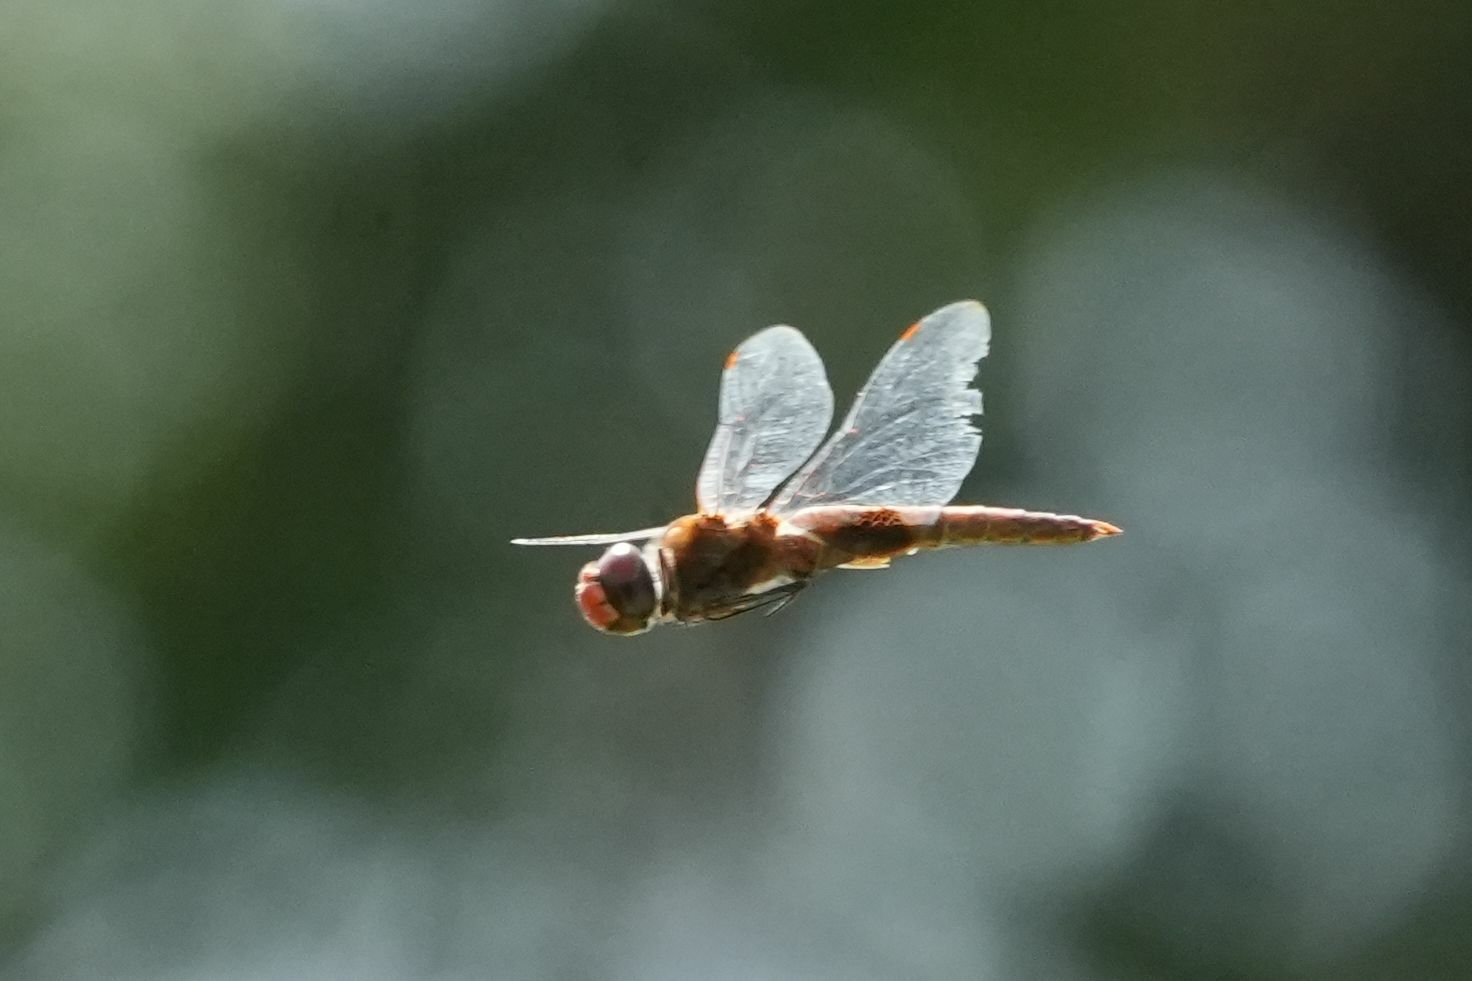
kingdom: Animalia
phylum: Arthropoda
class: Insecta
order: Odonata
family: Libellulidae
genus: Pantala
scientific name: Pantala hymenaea
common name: Spot-winged glider
